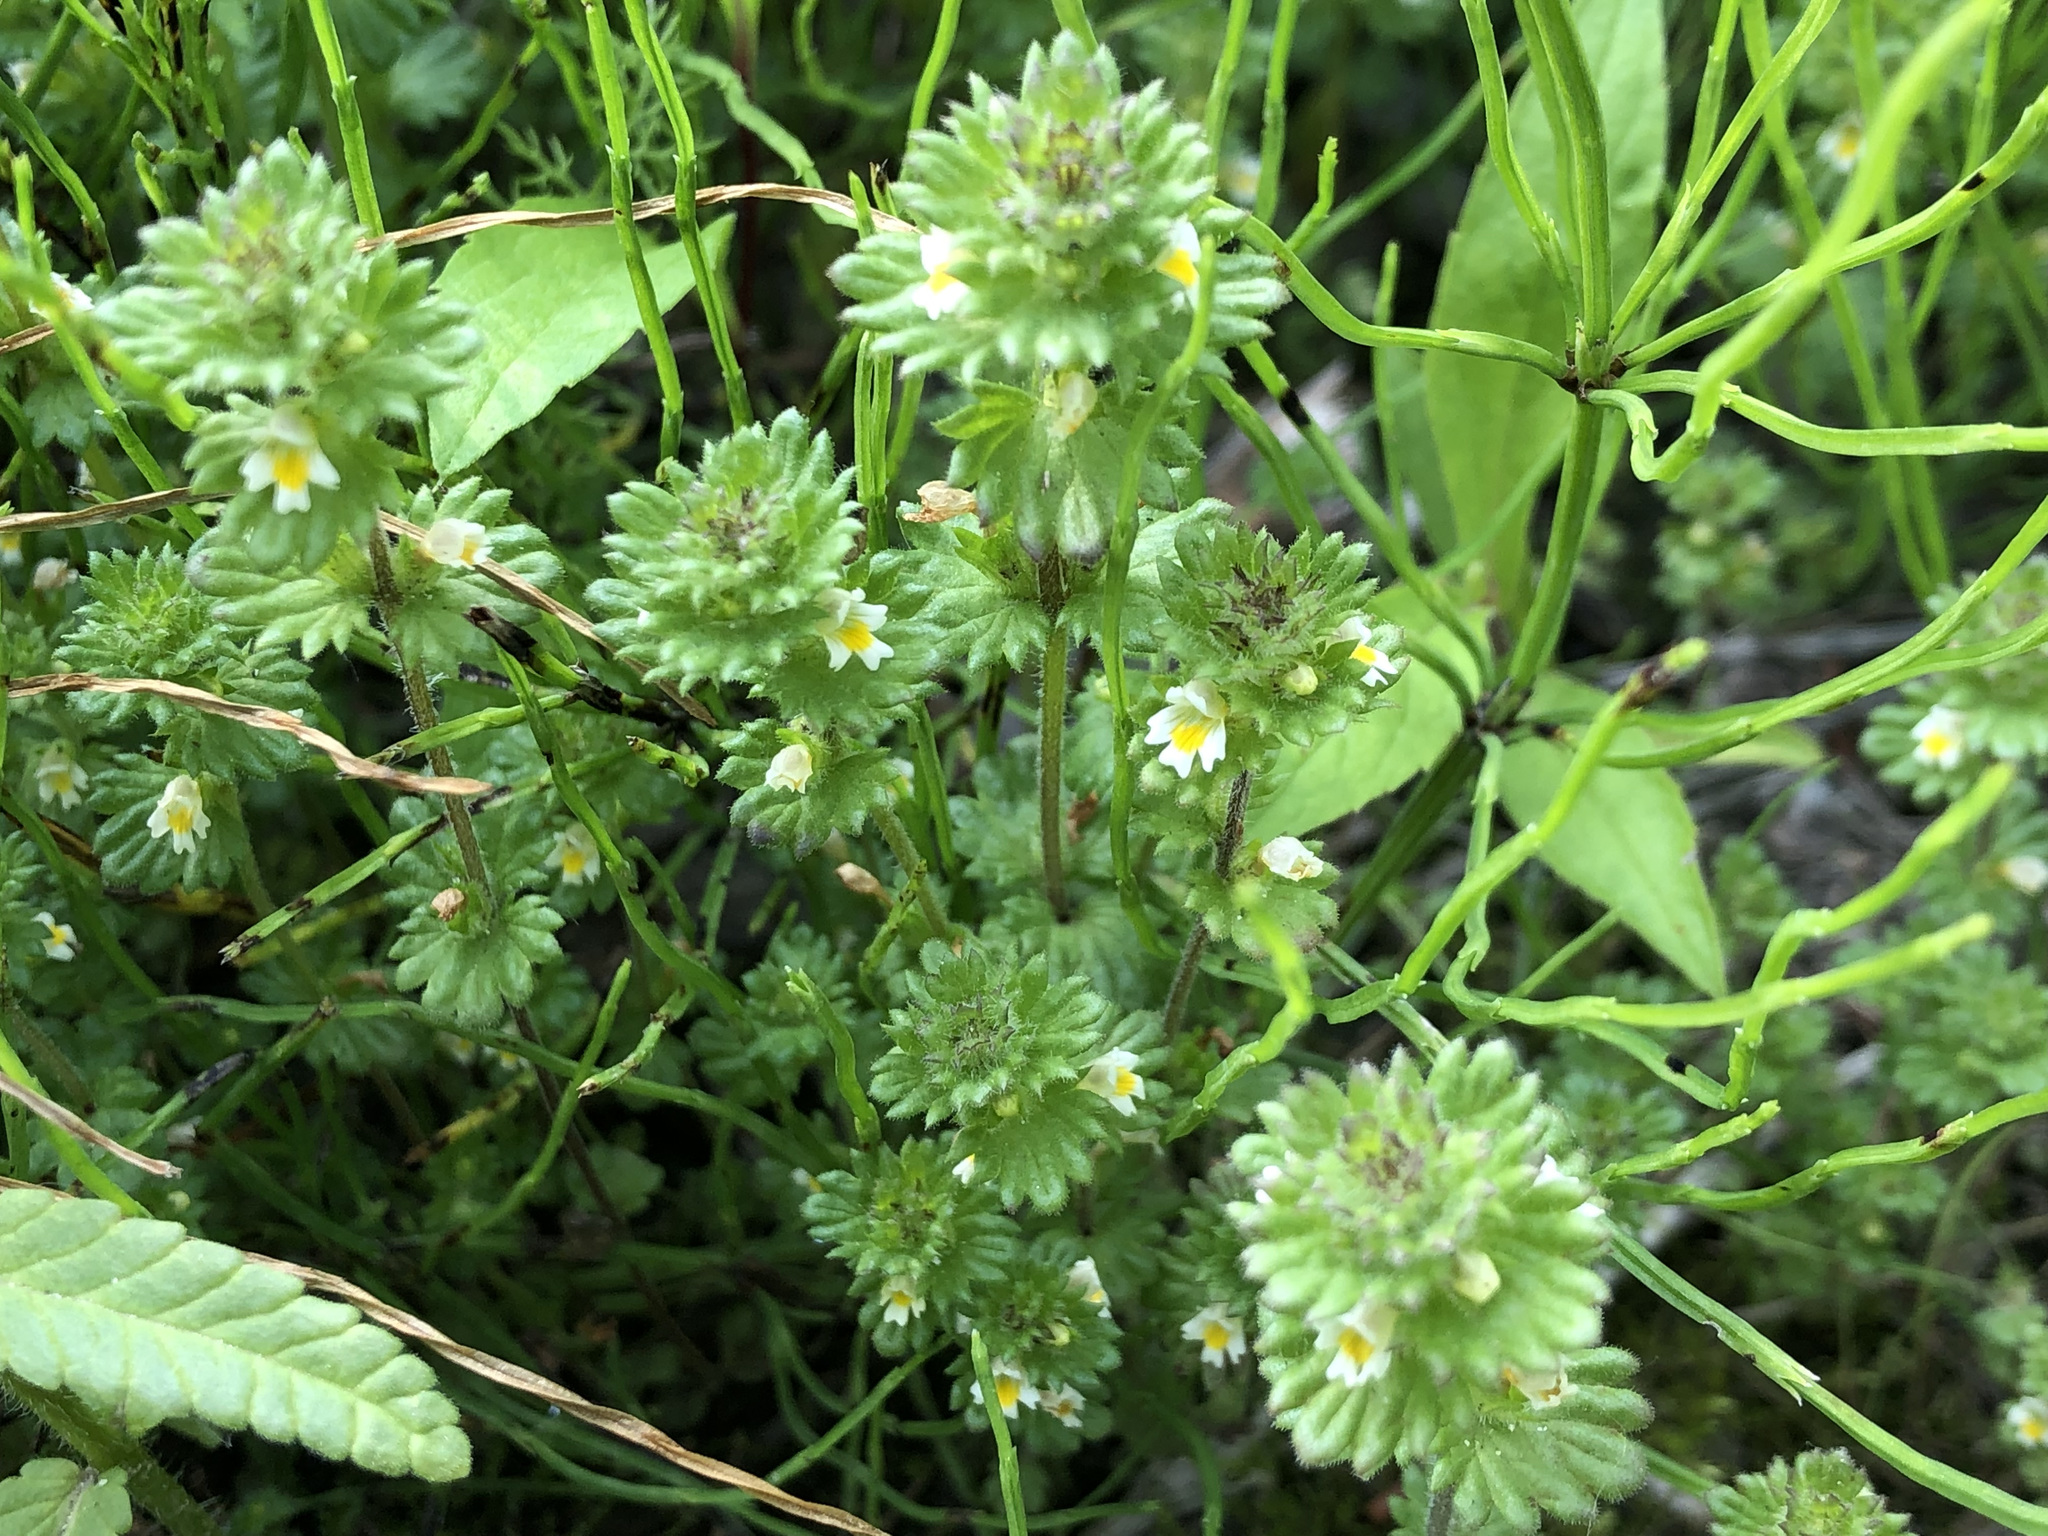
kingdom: Plantae
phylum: Tracheophyta
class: Magnoliopsida
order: Lamiales
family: Orobanchaceae
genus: Euphrasia
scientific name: Euphrasia subarctica
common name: Subarctic eyebright
